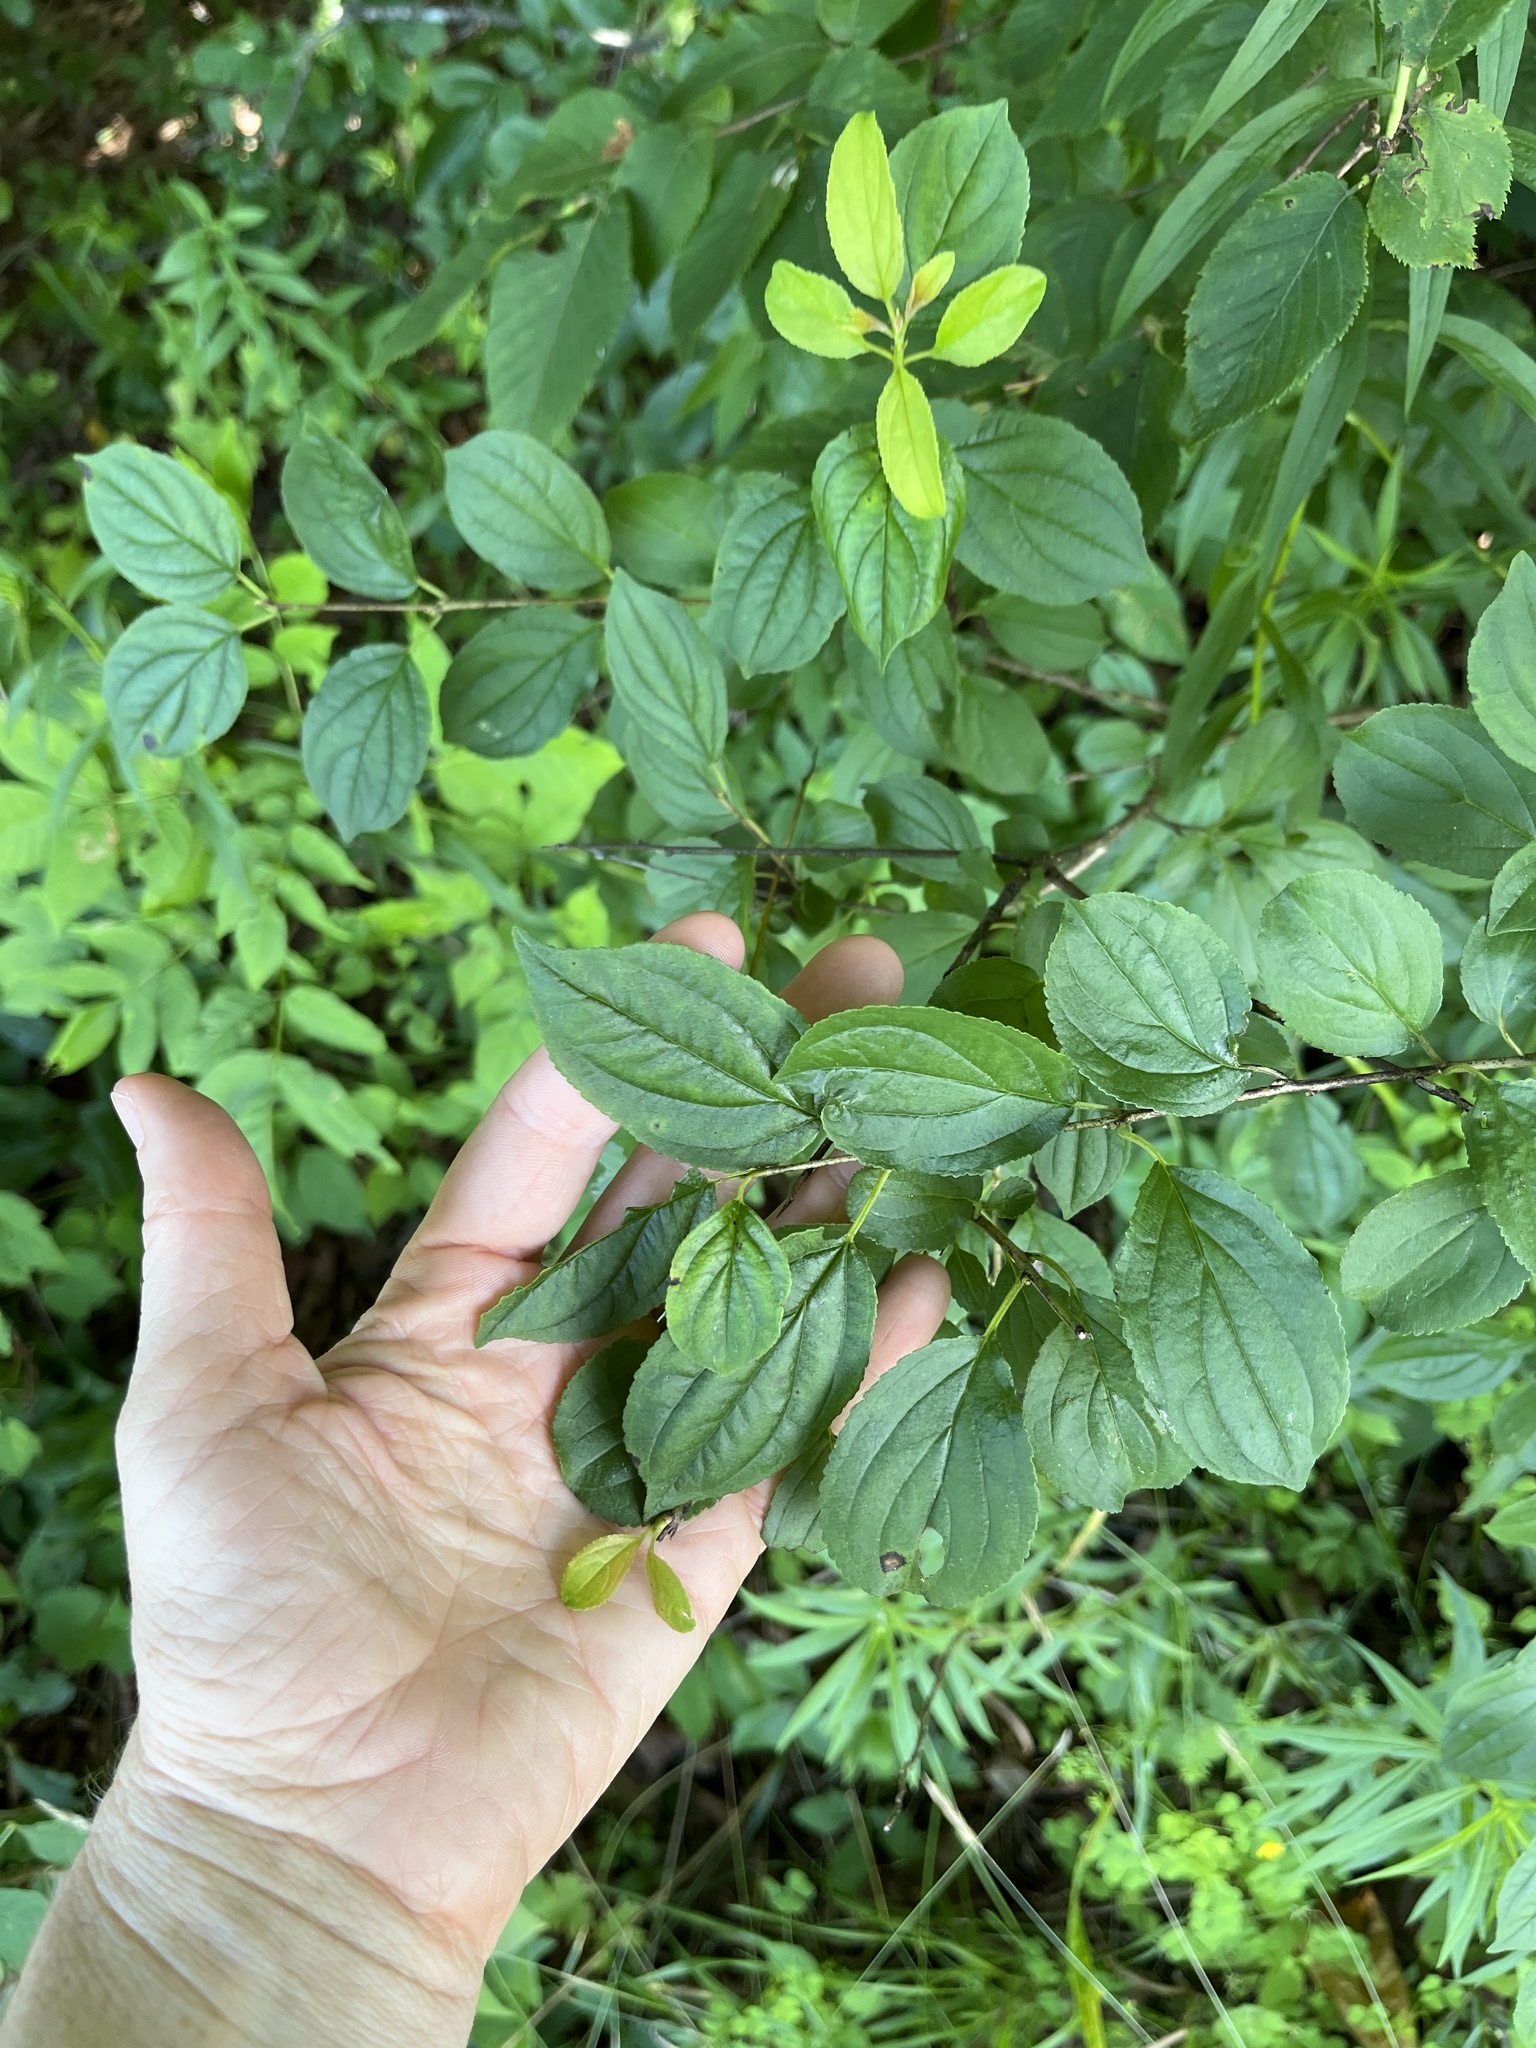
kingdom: Plantae
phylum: Tracheophyta
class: Magnoliopsida
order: Rosales
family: Rhamnaceae
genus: Rhamnus
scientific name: Rhamnus cathartica
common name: Common buckthorn
